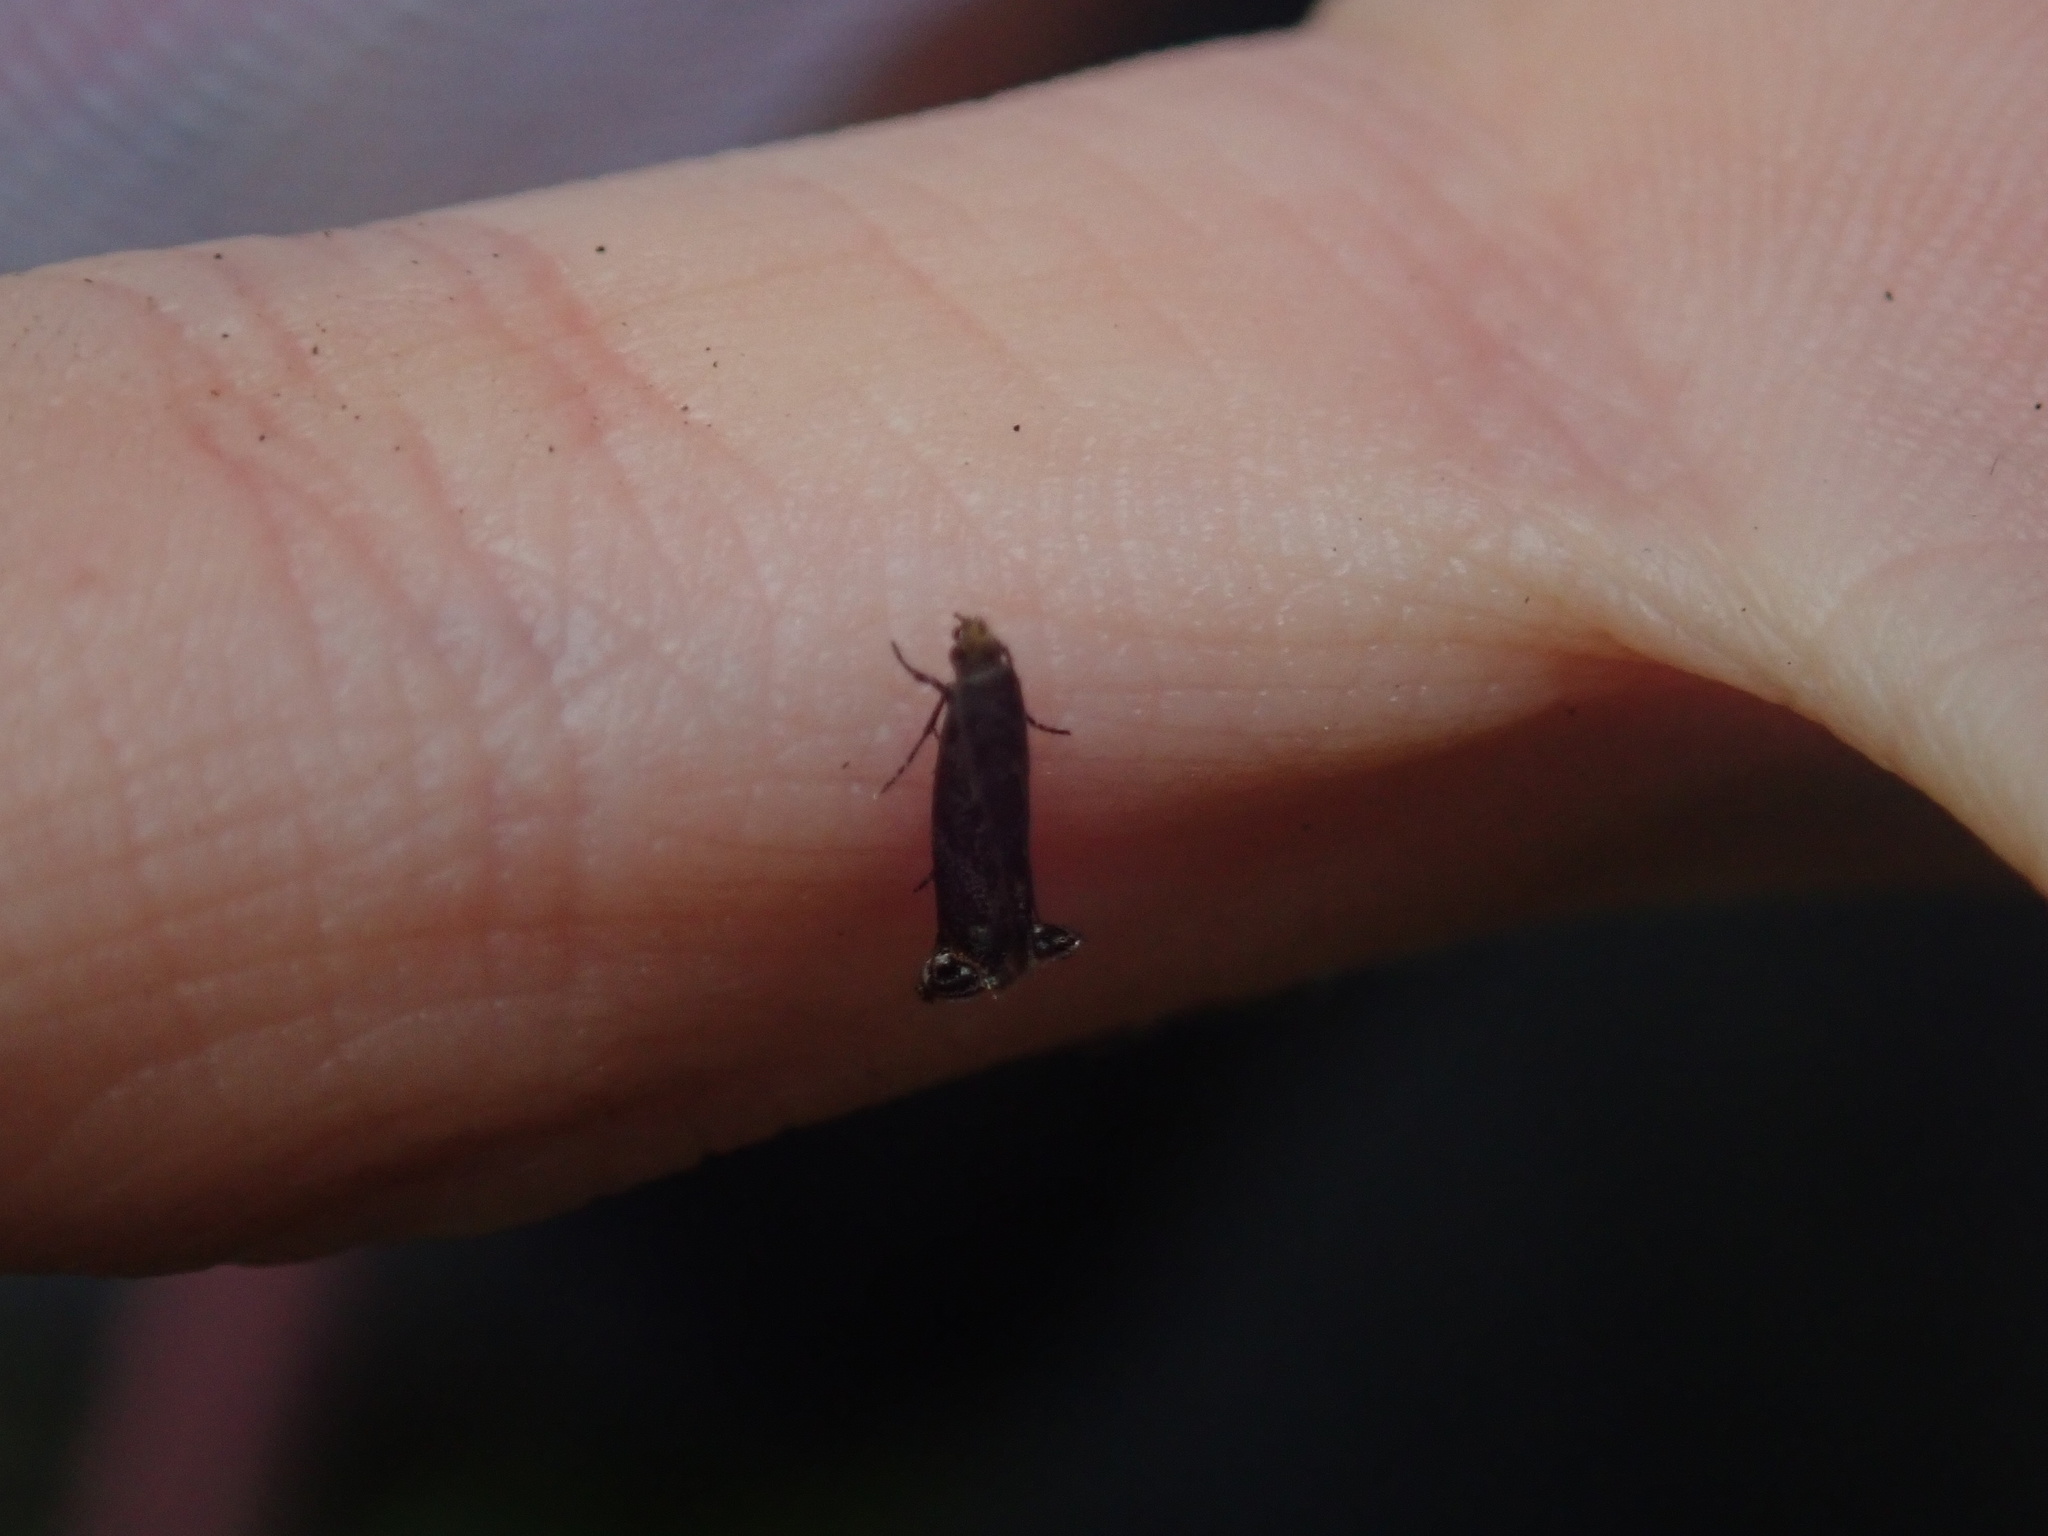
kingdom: Animalia
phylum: Arthropoda
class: Insecta
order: Lepidoptera
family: Tineidae
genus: Erechthias
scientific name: Erechthias externella
